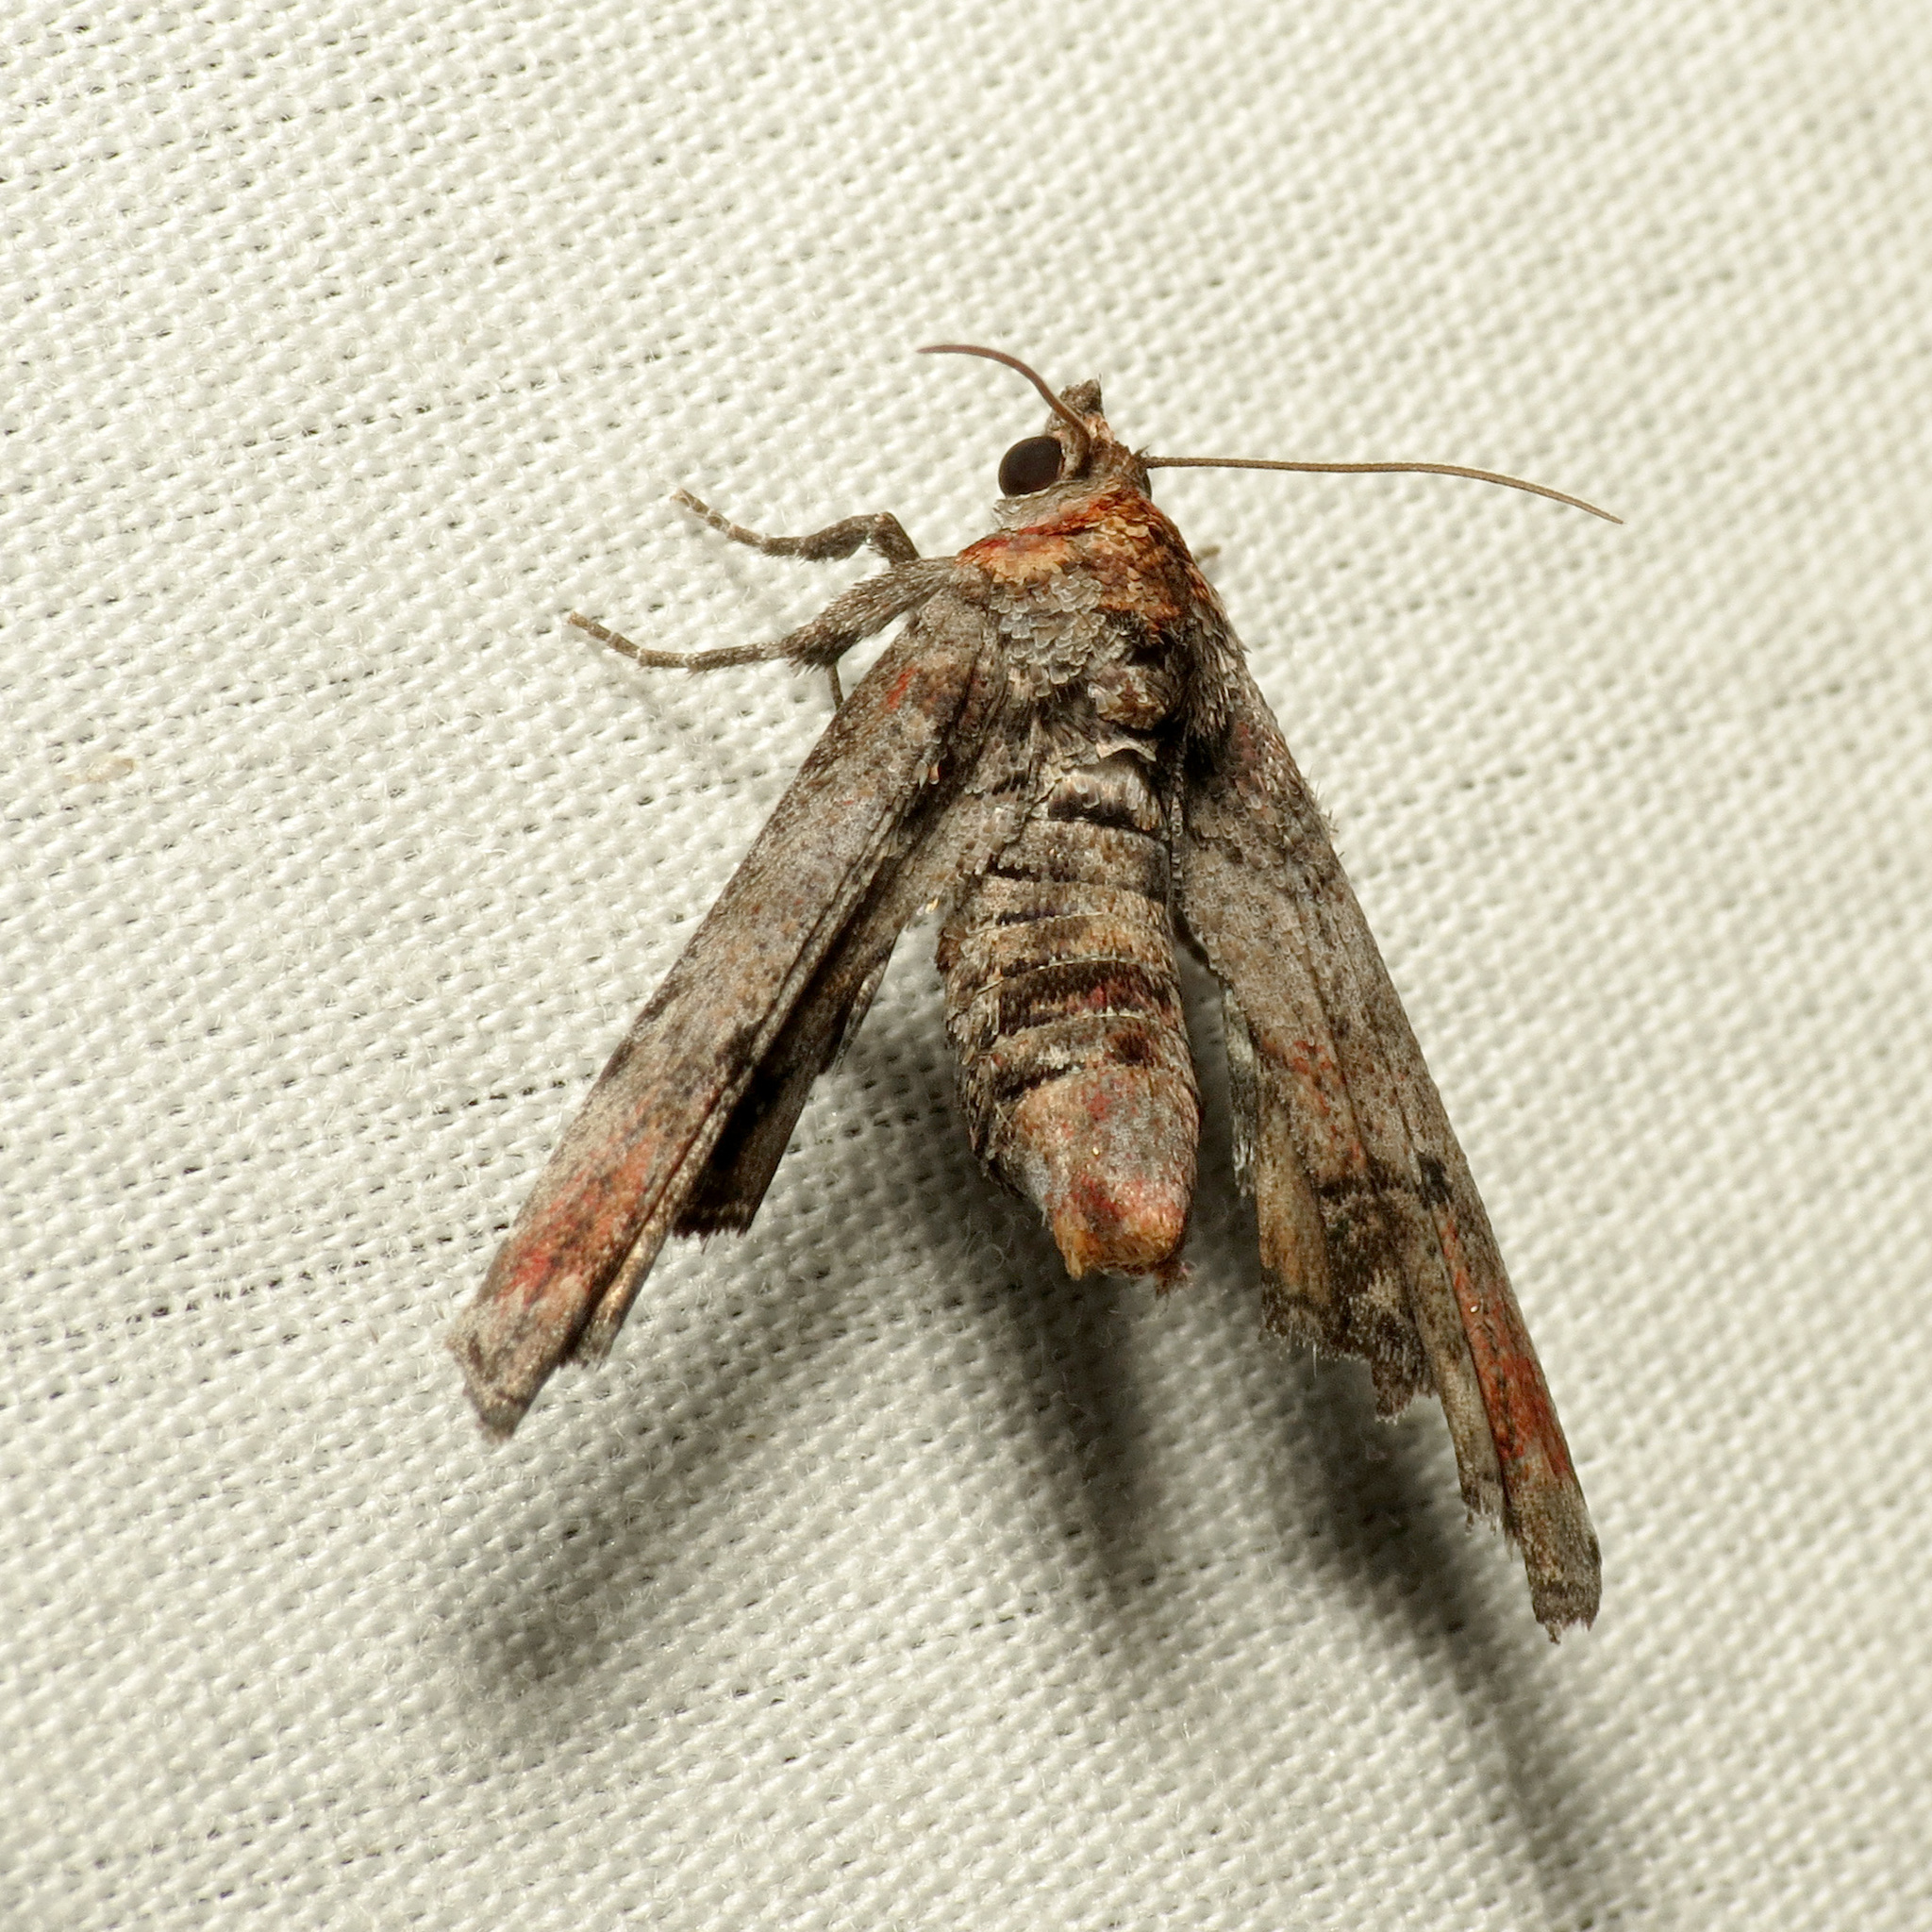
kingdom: Animalia
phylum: Arthropoda
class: Insecta
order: Lepidoptera
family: Euteliidae
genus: Marathyssa
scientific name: Marathyssa inficita
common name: Dark marathyssa moth
